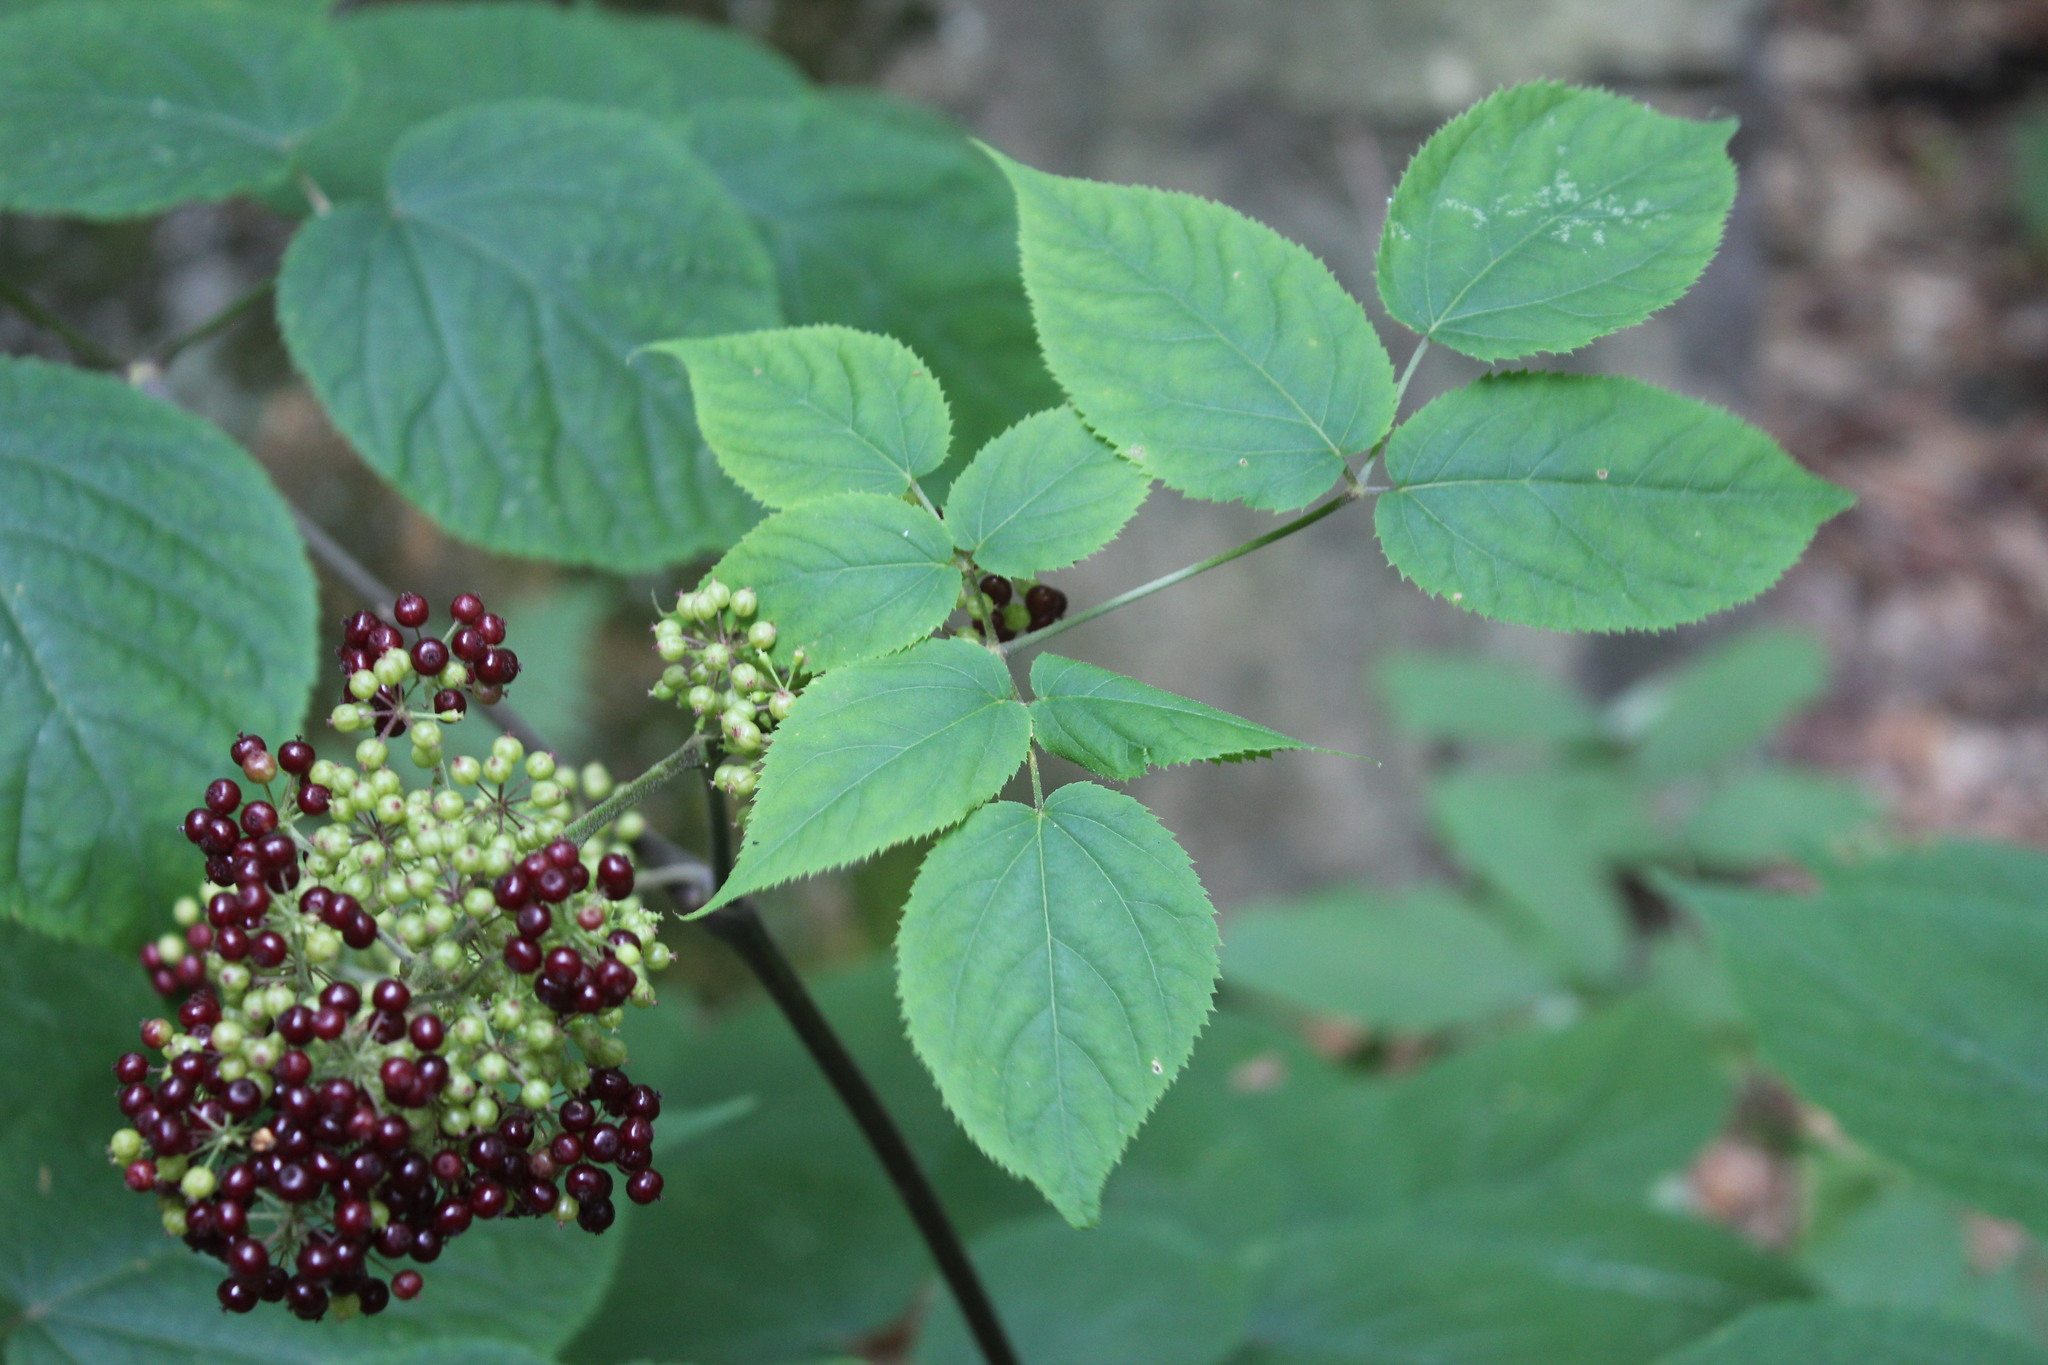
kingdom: Plantae
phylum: Tracheophyta
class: Magnoliopsida
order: Apiales
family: Araliaceae
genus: Aralia
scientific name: Aralia racemosa
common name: American-spikenard
